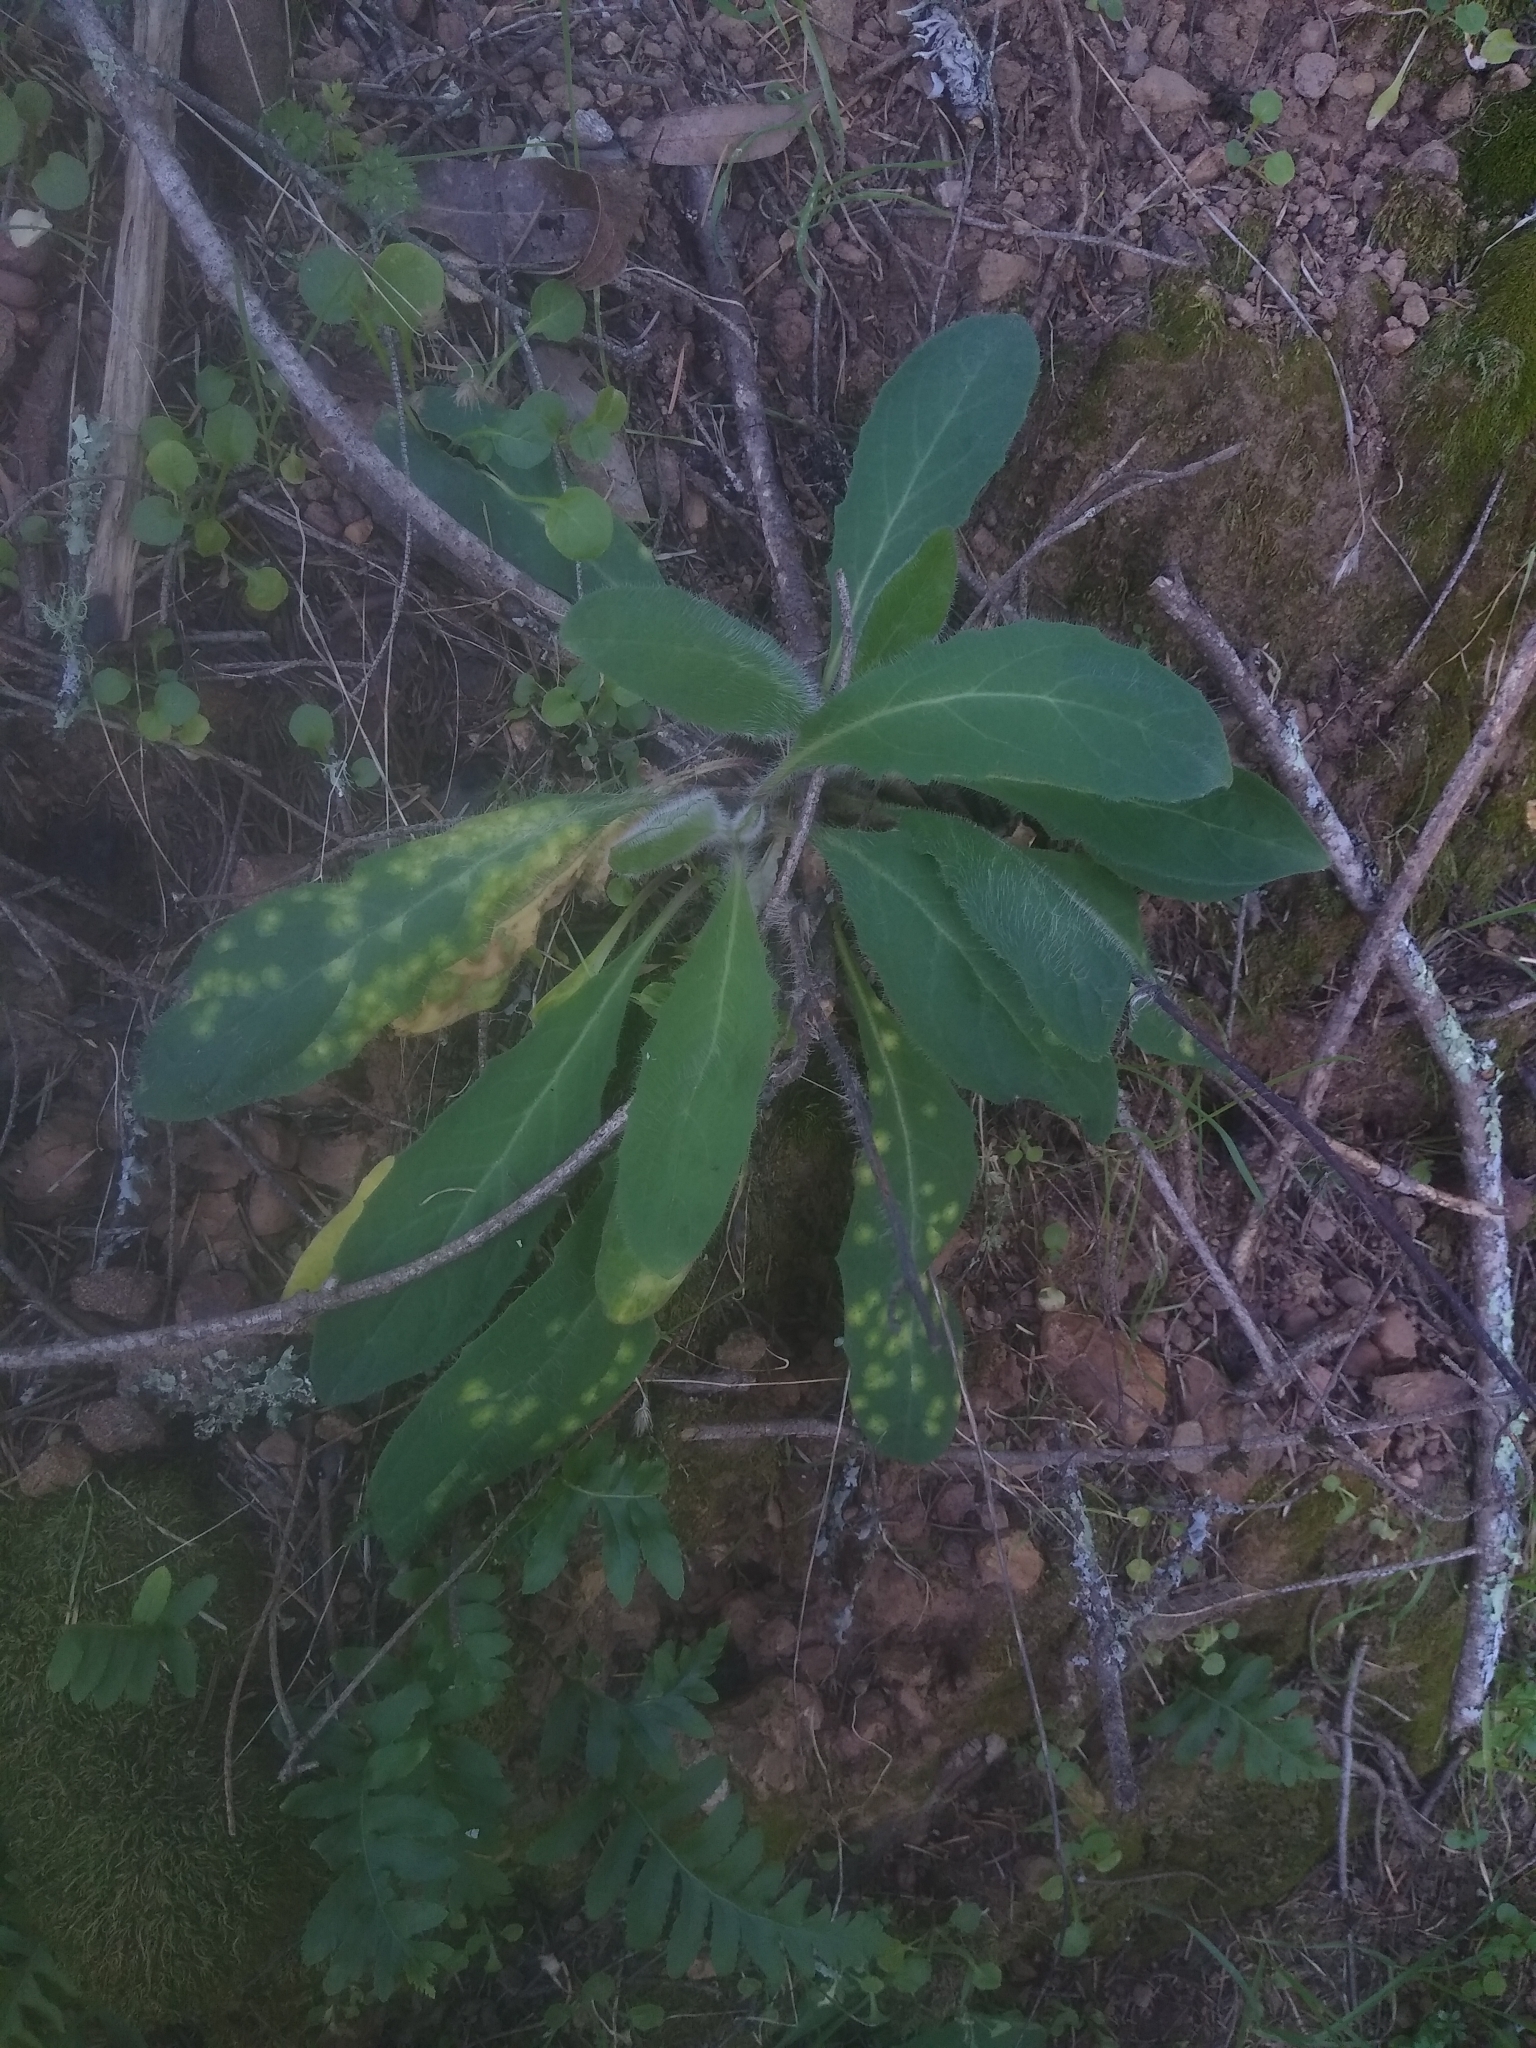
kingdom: Plantae
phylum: Tracheophyta
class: Magnoliopsida
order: Asterales
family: Asteraceae
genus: Hieracium
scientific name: Hieracium albiflorum
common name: White hawkweed
